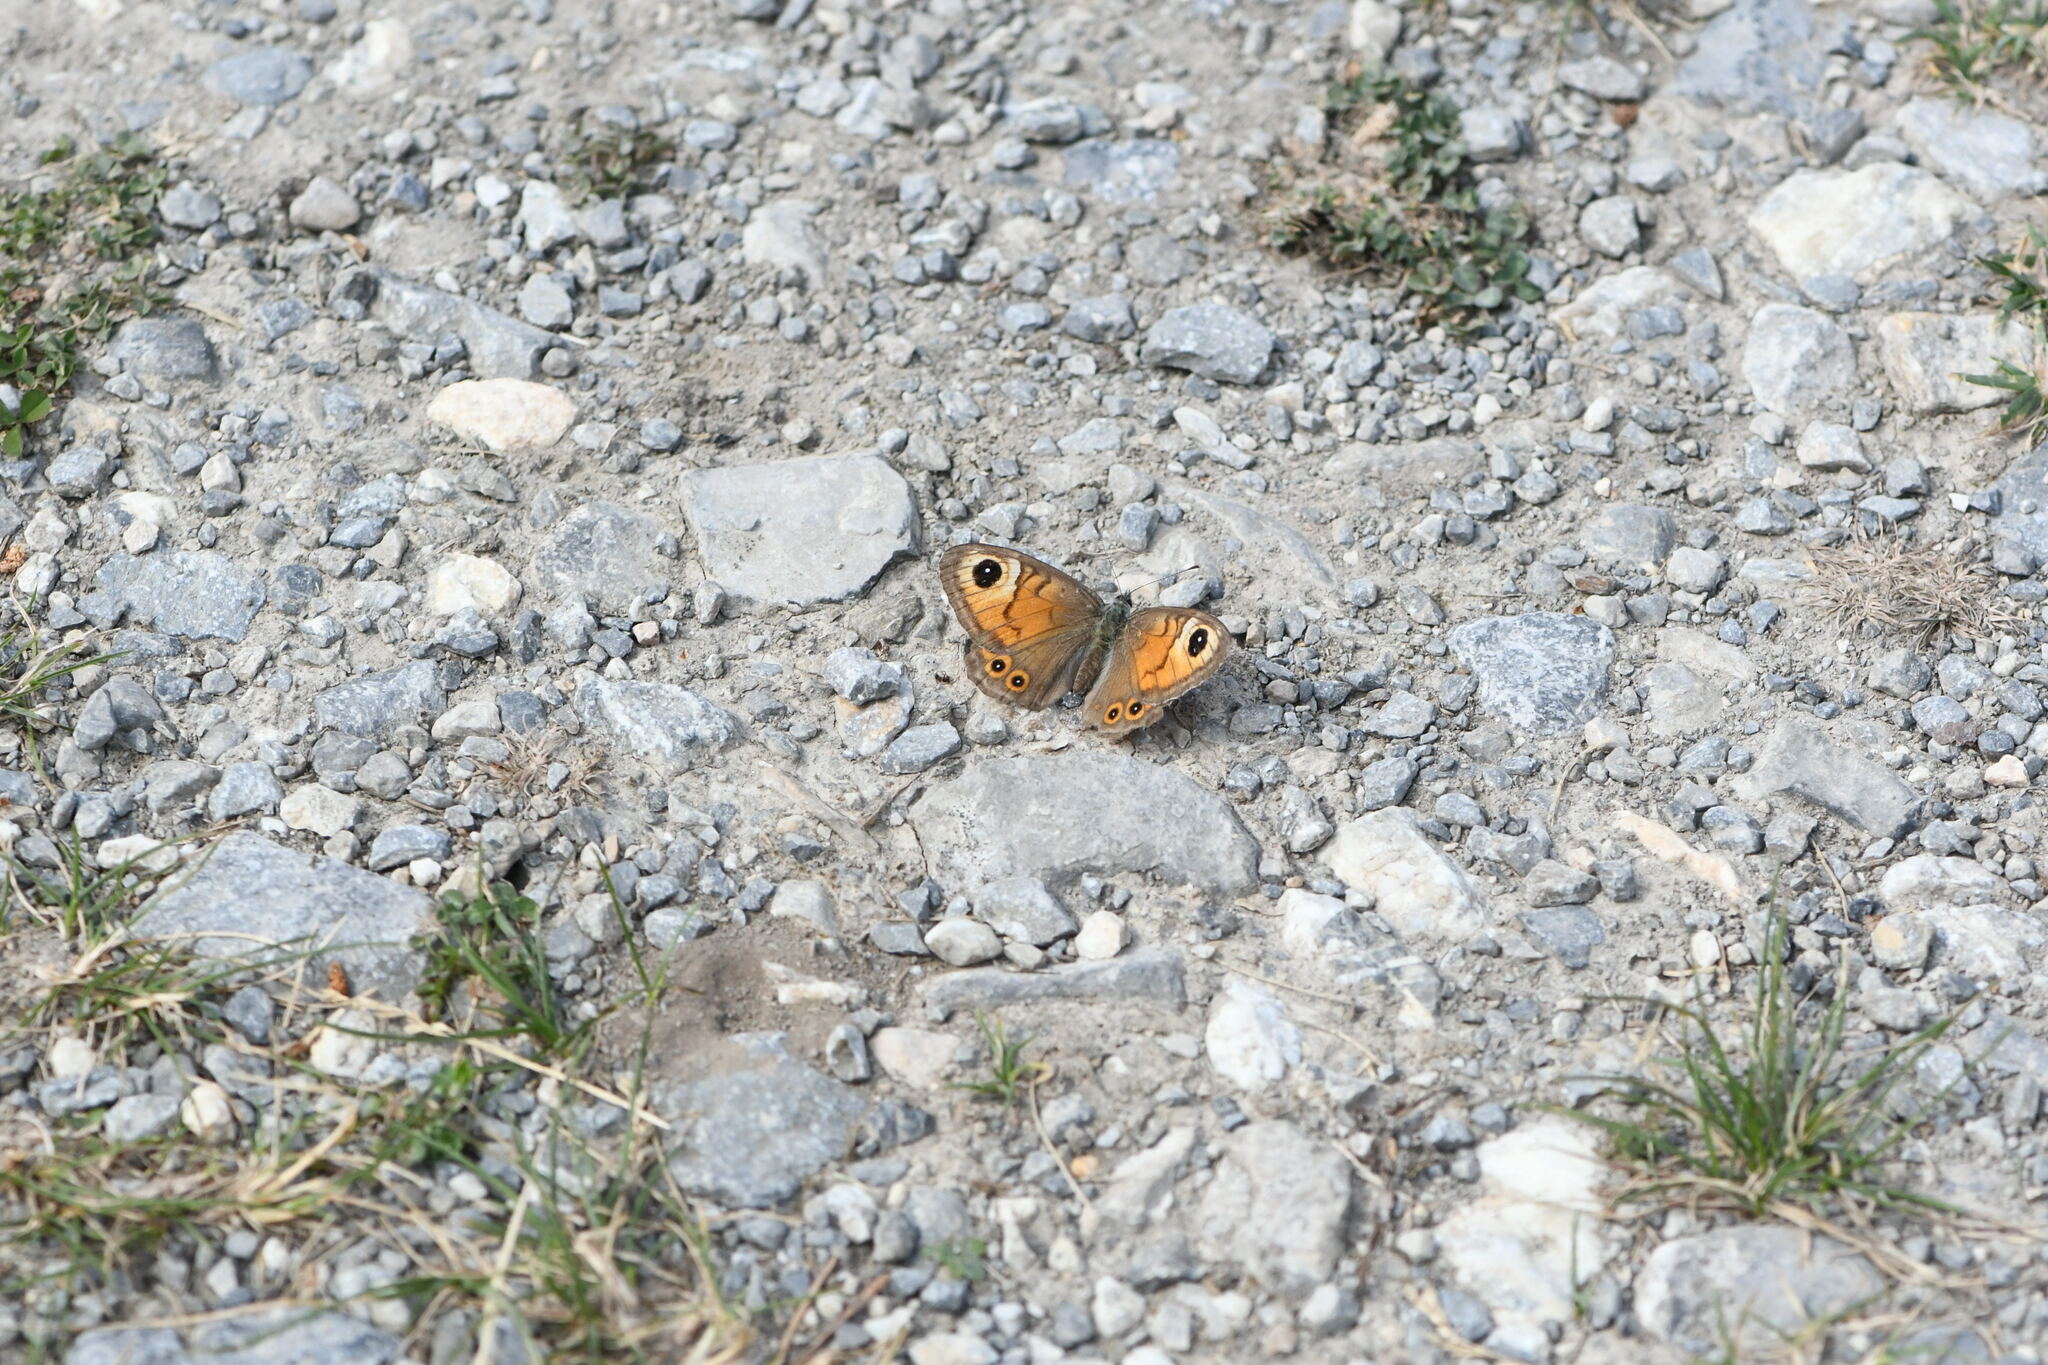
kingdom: Animalia
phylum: Arthropoda
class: Insecta
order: Lepidoptera
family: Nymphalidae
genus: Pararge
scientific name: Pararge Lasiommata maera
